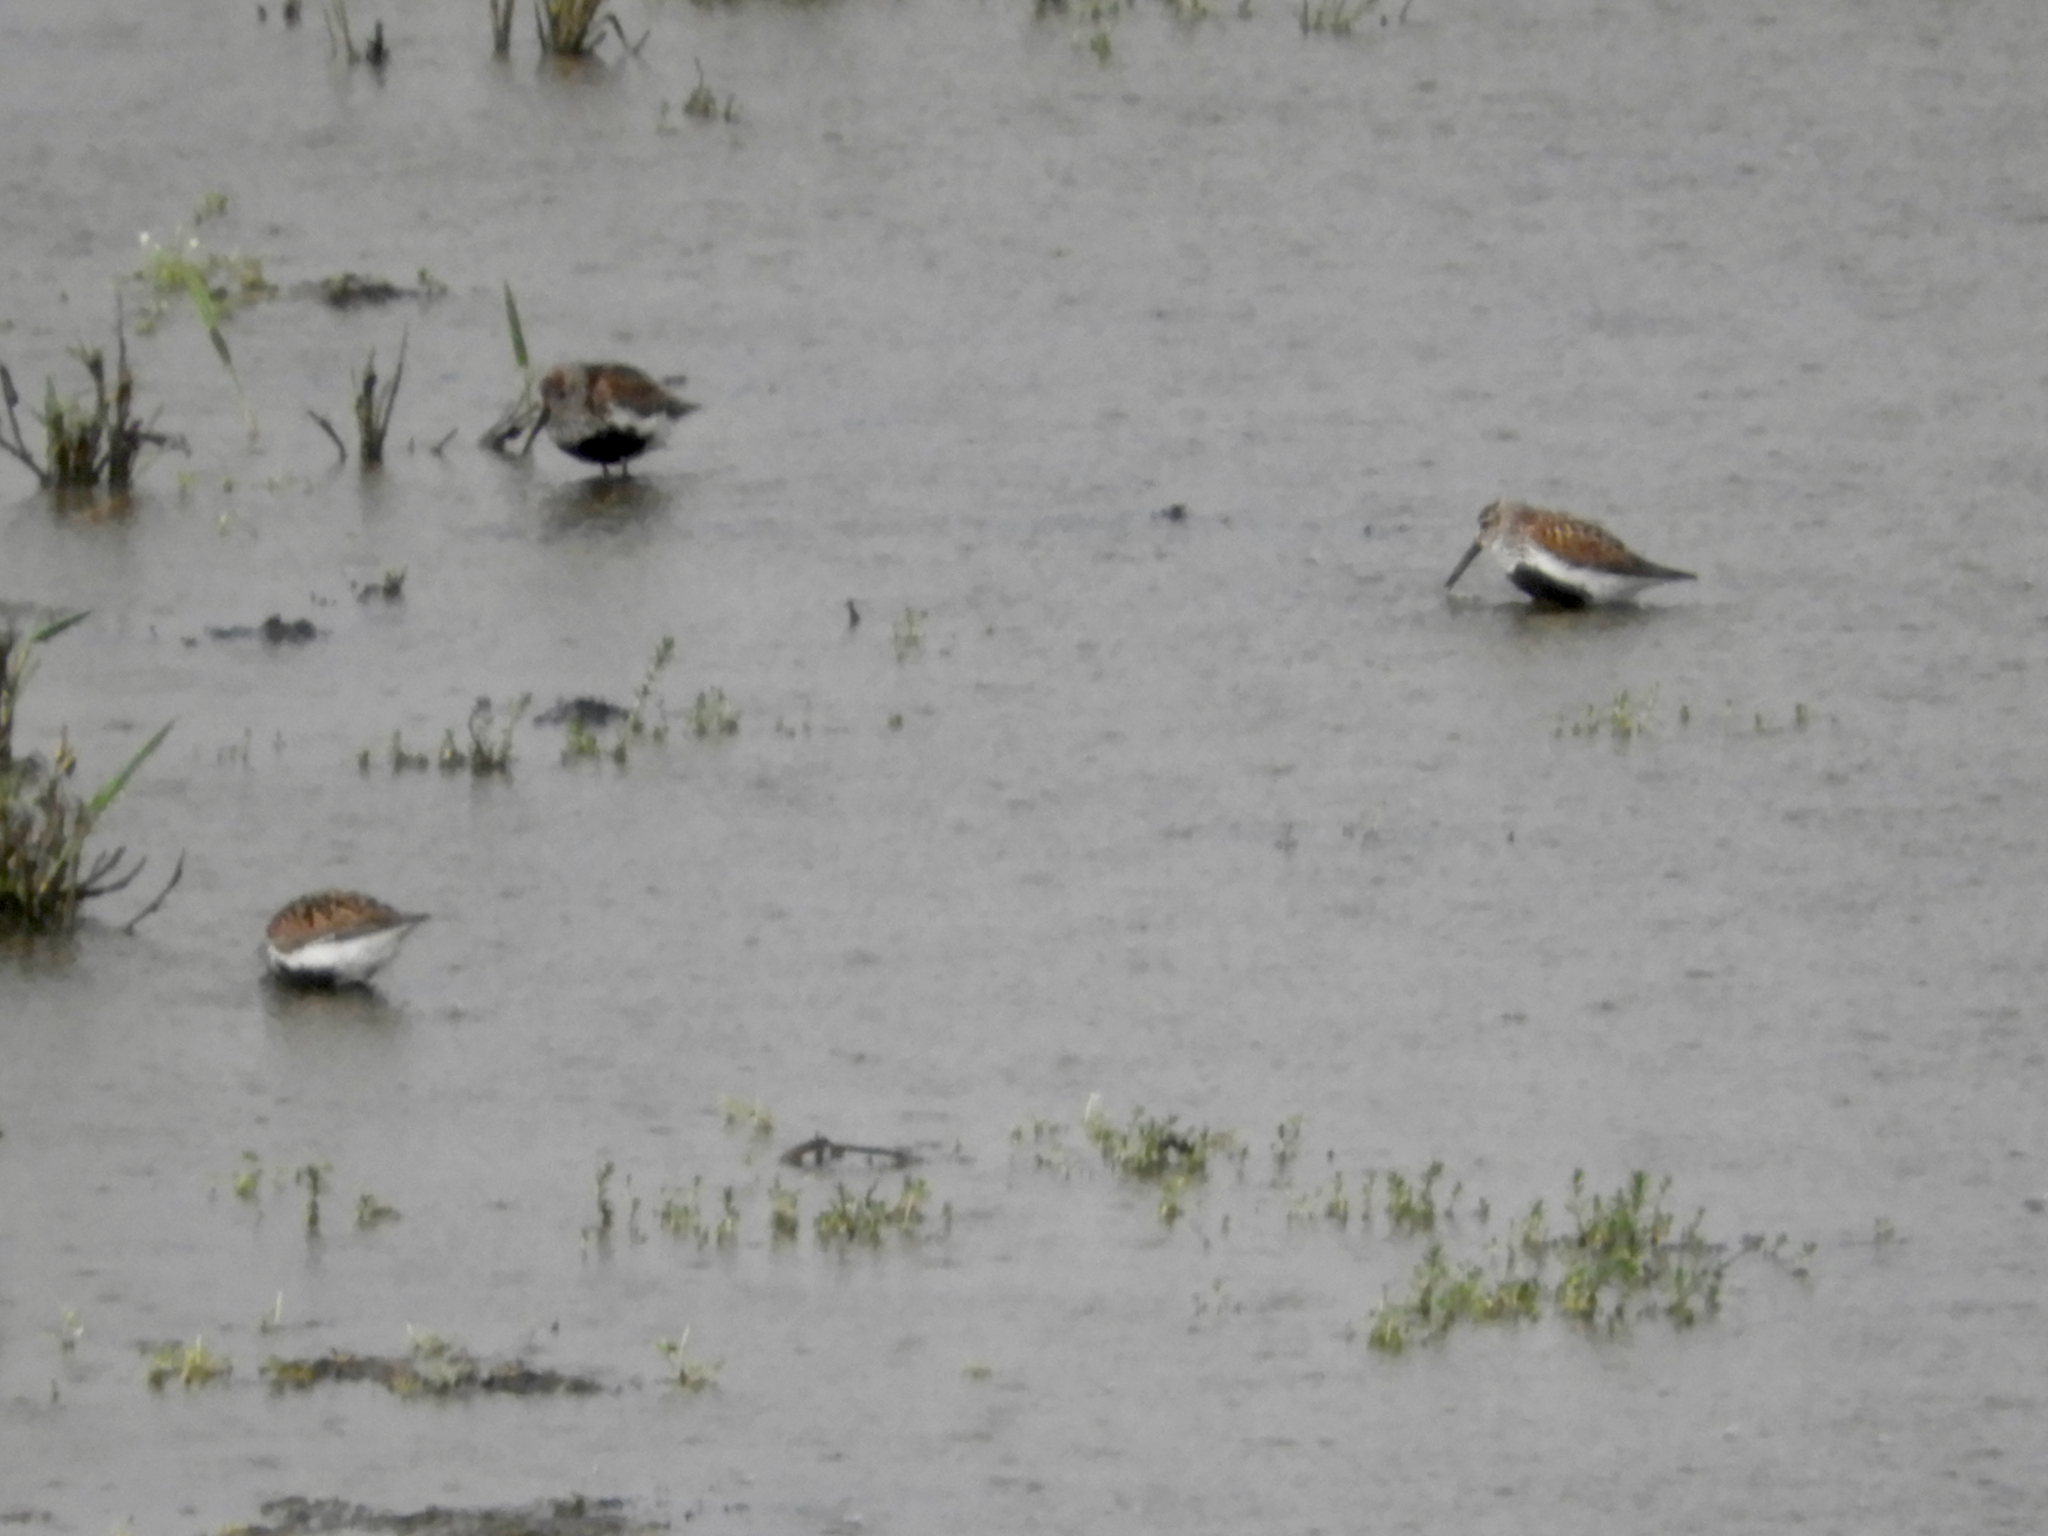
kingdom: Animalia
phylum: Chordata
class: Aves
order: Charadriiformes
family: Scolopacidae
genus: Calidris
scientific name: Calidris alpina
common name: Dunlin
